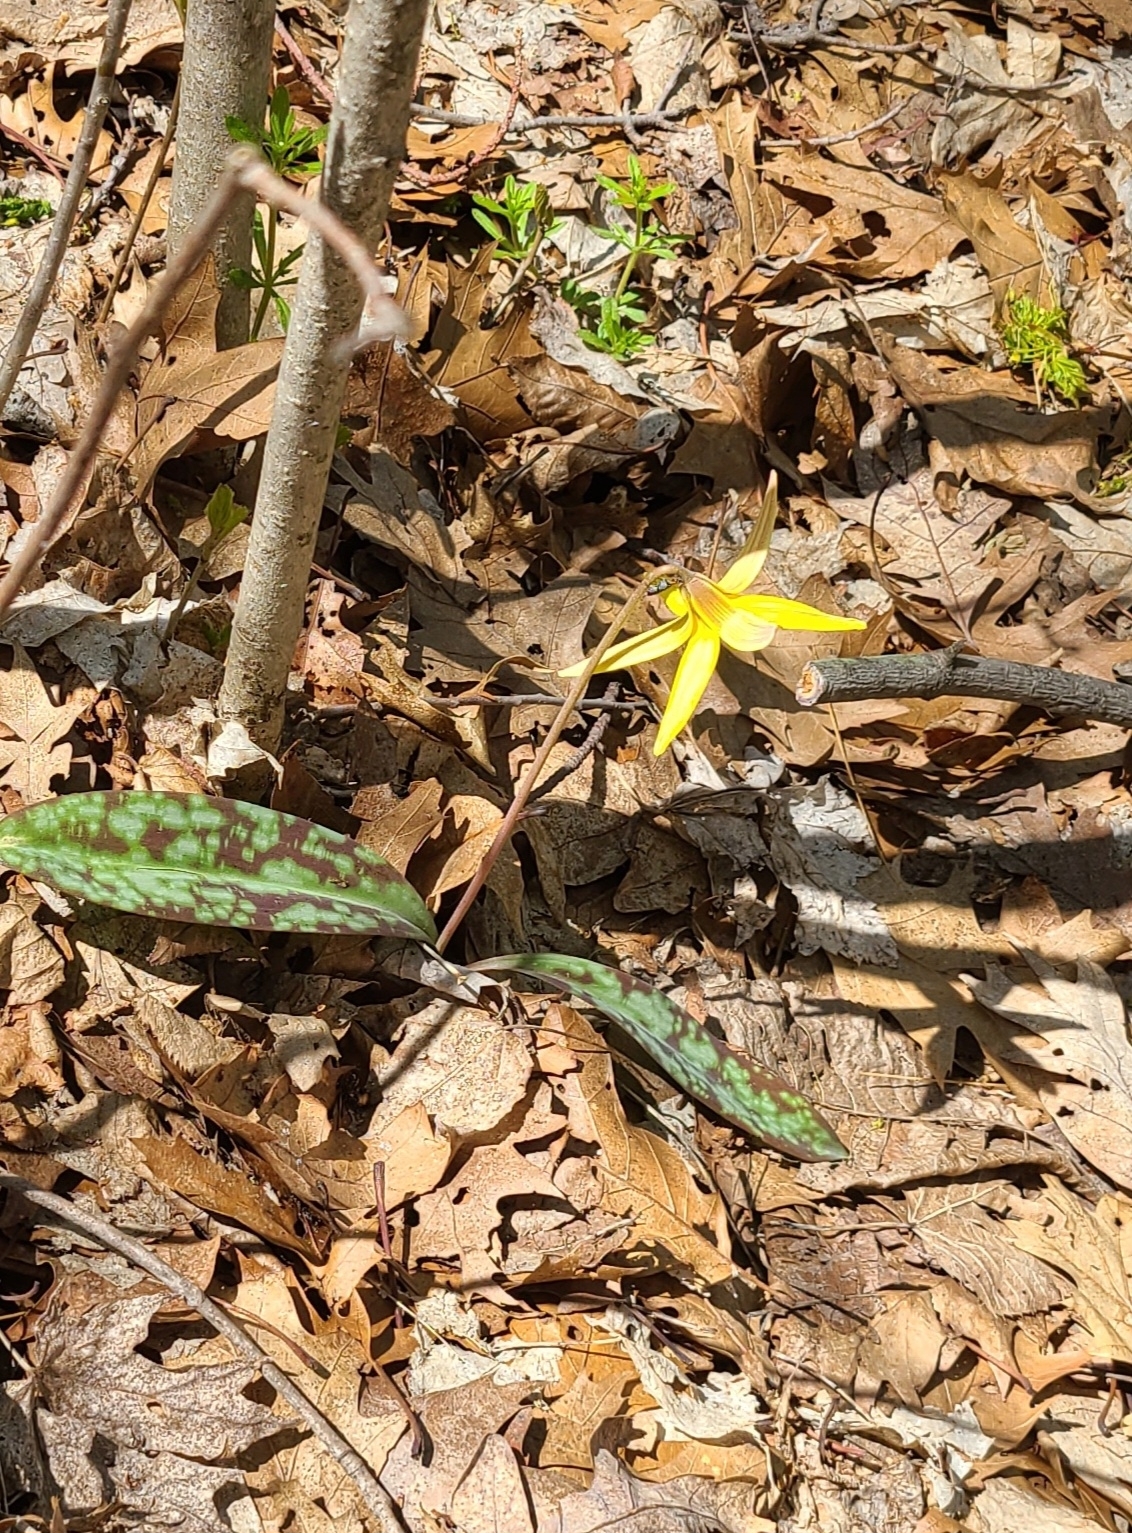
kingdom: Plantae
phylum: Tracheophyta
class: Liliopsida
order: Liliales
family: Liliaceae
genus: Erythronium
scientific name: Erythronium americanum
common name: Yellow adder's-tongue
